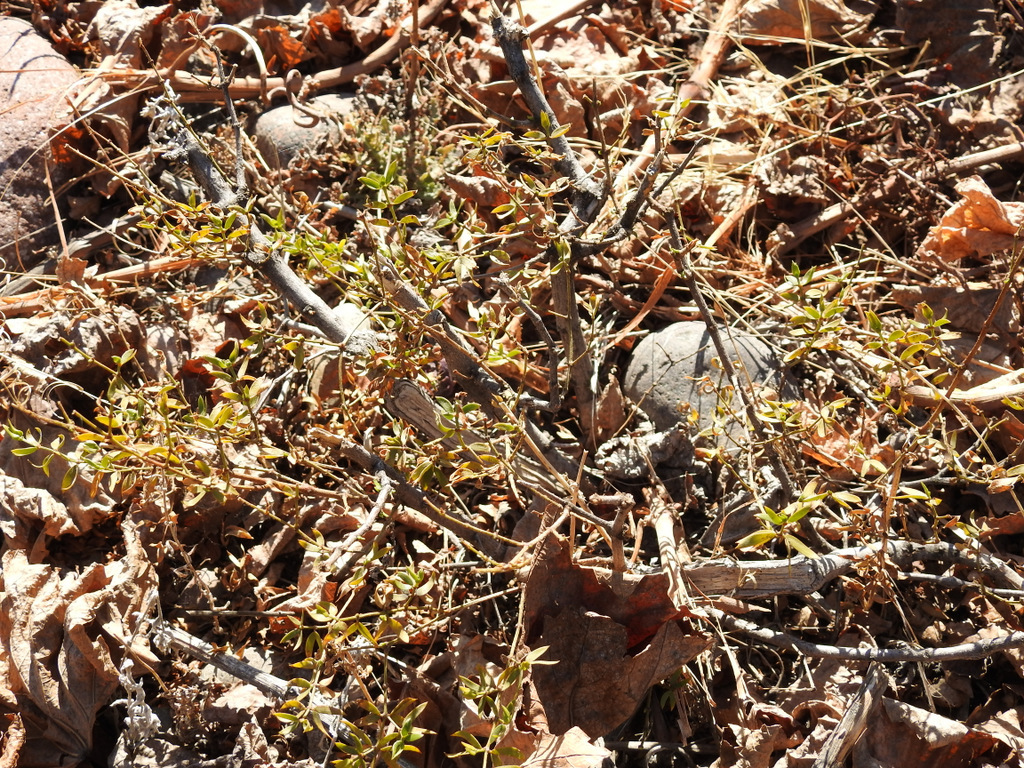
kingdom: Plantae
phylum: Tracheophyta
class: Magnoliopsida
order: Zygophyllales
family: Zygophyllaceae
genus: Larrea
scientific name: Larrea divaricata
